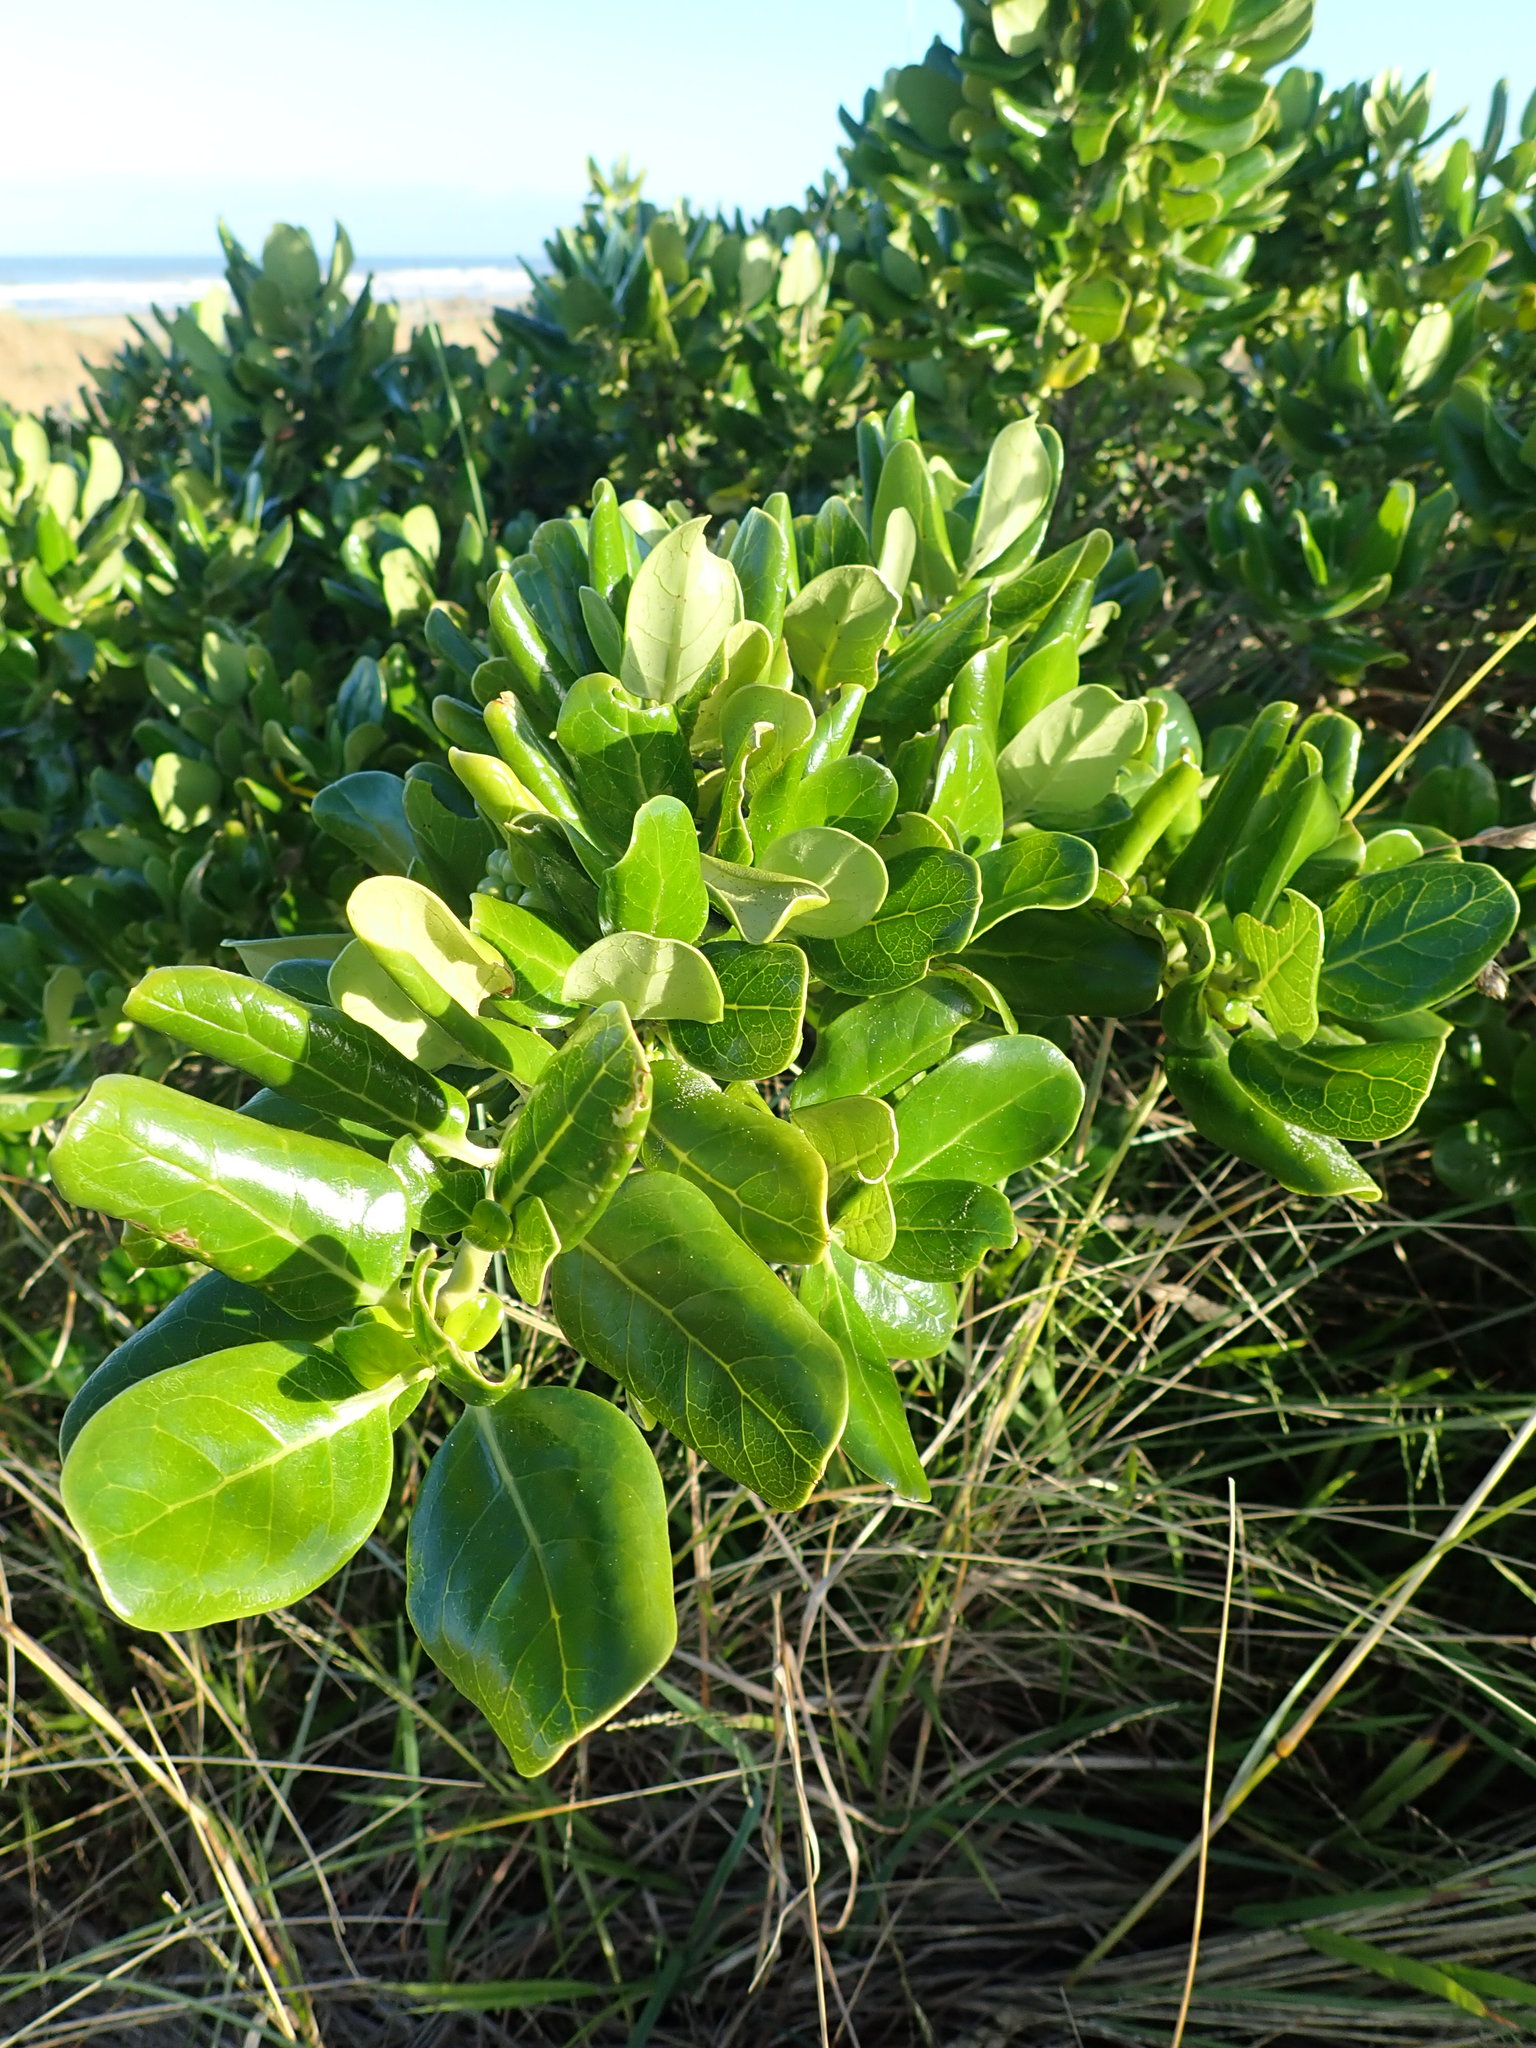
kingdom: Plantae
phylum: Tracheophyta
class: Magnoliopsida
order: Gentianales
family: Rubiaceae
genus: Coprosma
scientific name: Coprosma repens
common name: Tree bedstraw
